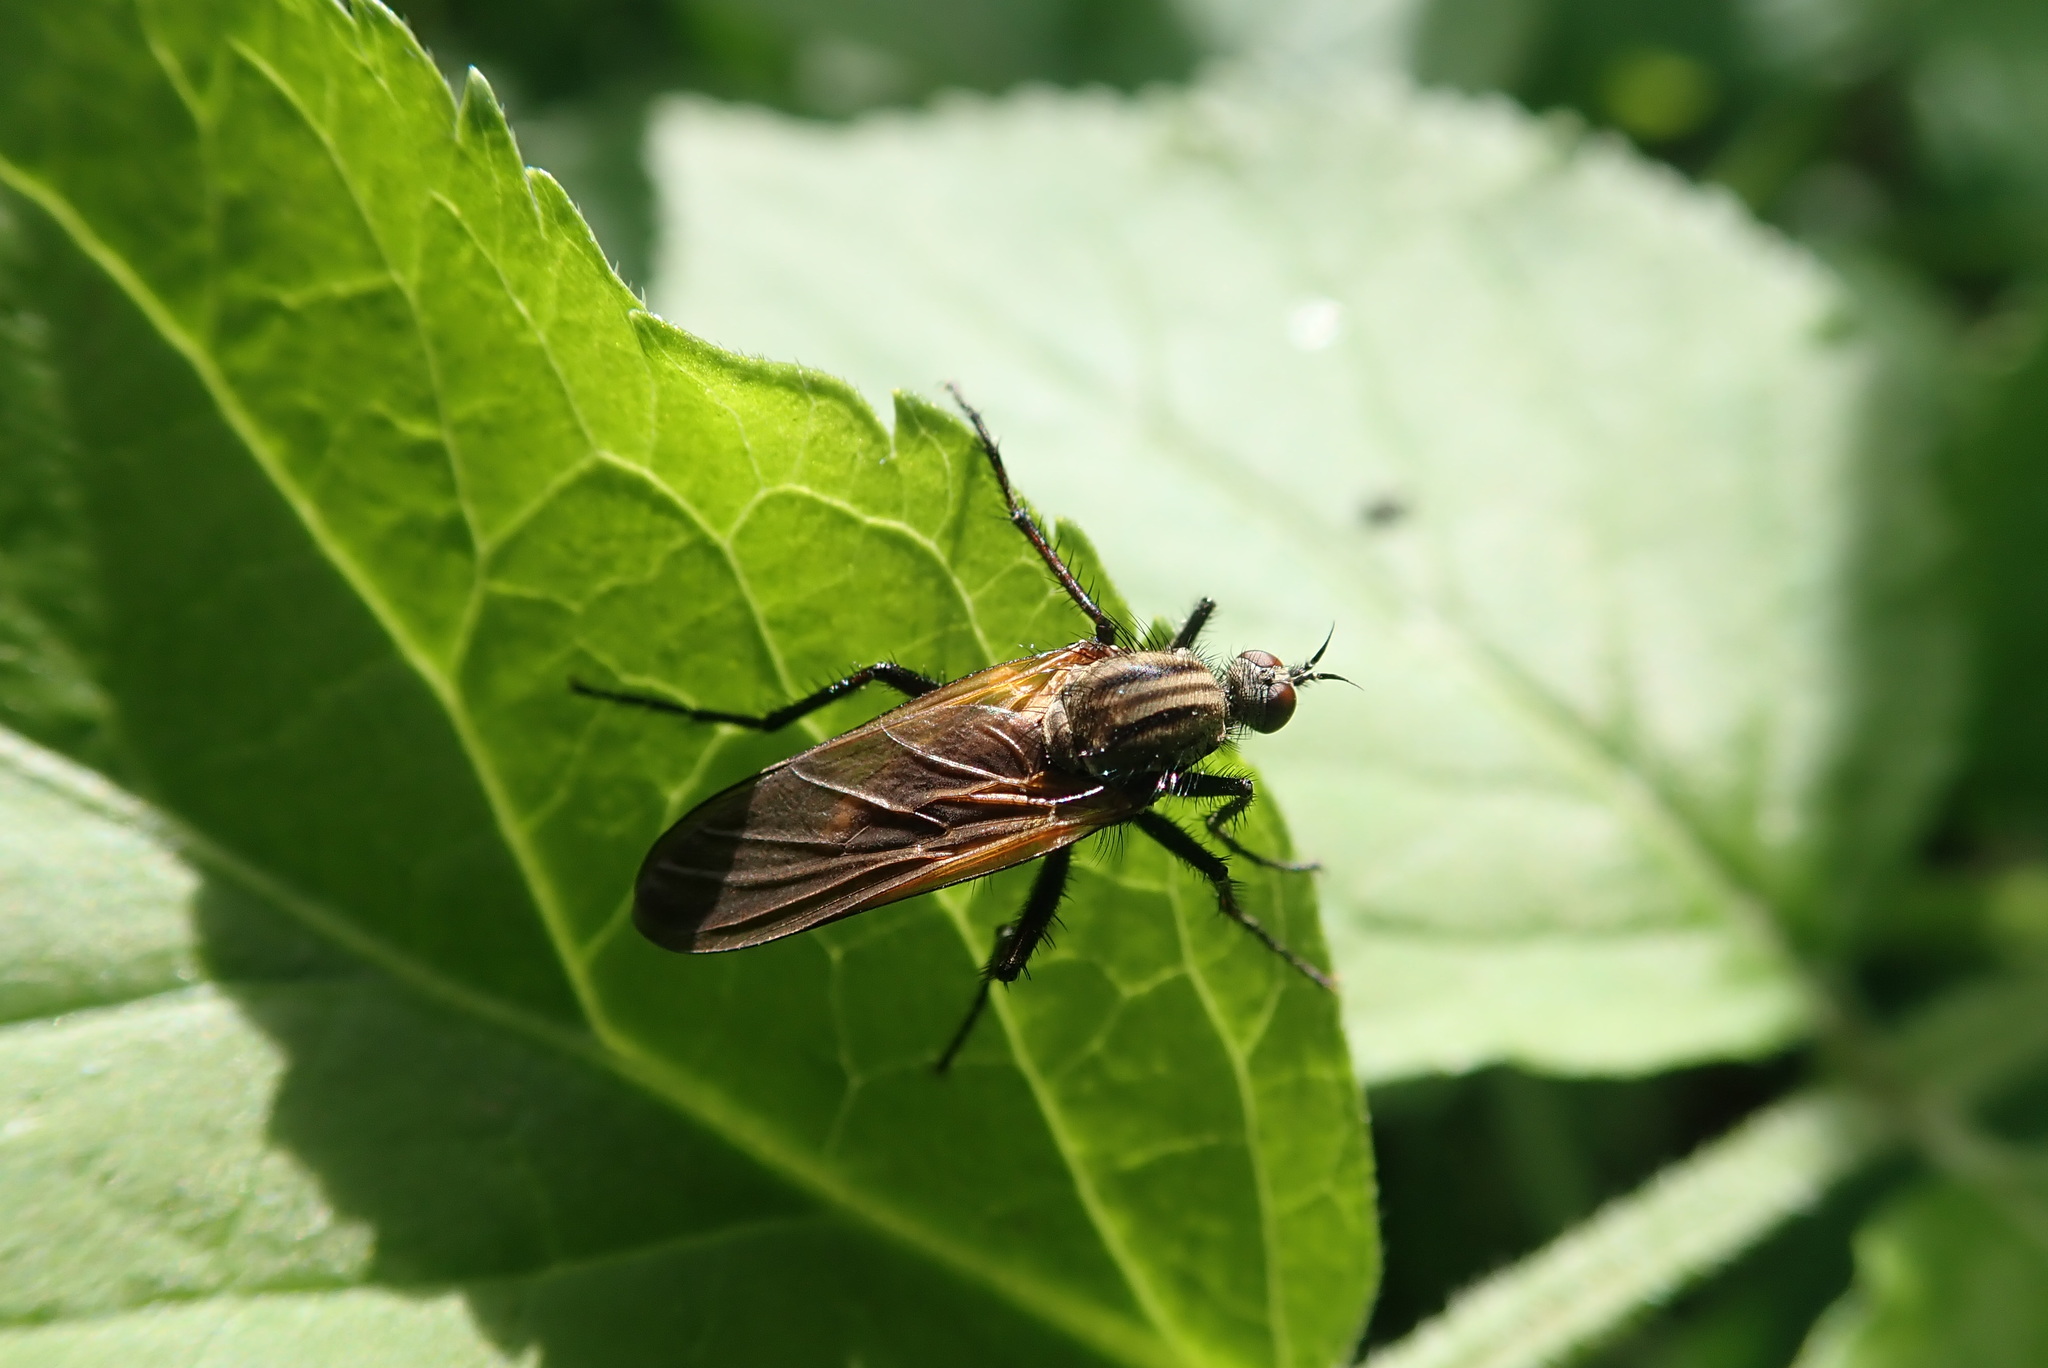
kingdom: Animalia
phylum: Arthropoda
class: Insecta
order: Diptera
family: Empididae
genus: Empis
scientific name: Empis tessellata
